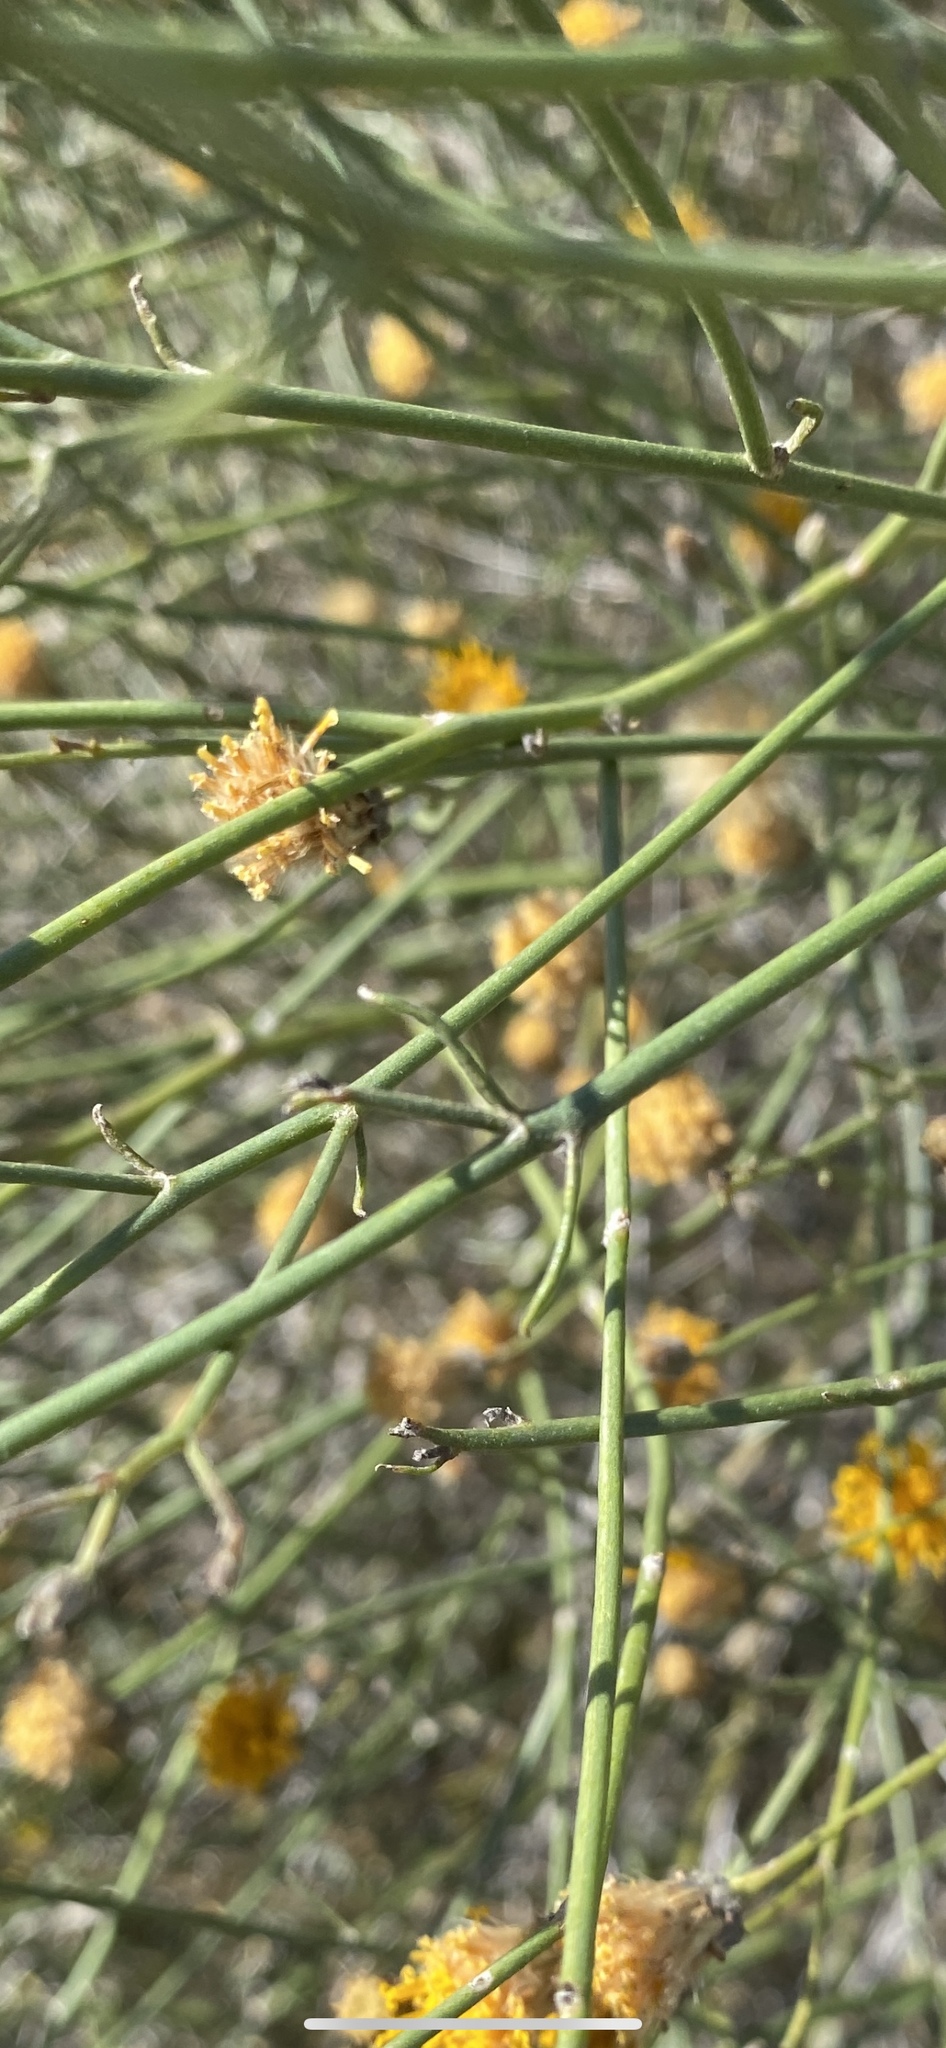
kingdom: Plantae
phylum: Tracheophyta
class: Magnoliopsida
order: Asterales
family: Asteraceae
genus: Bebbia
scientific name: Bebbia juncea
